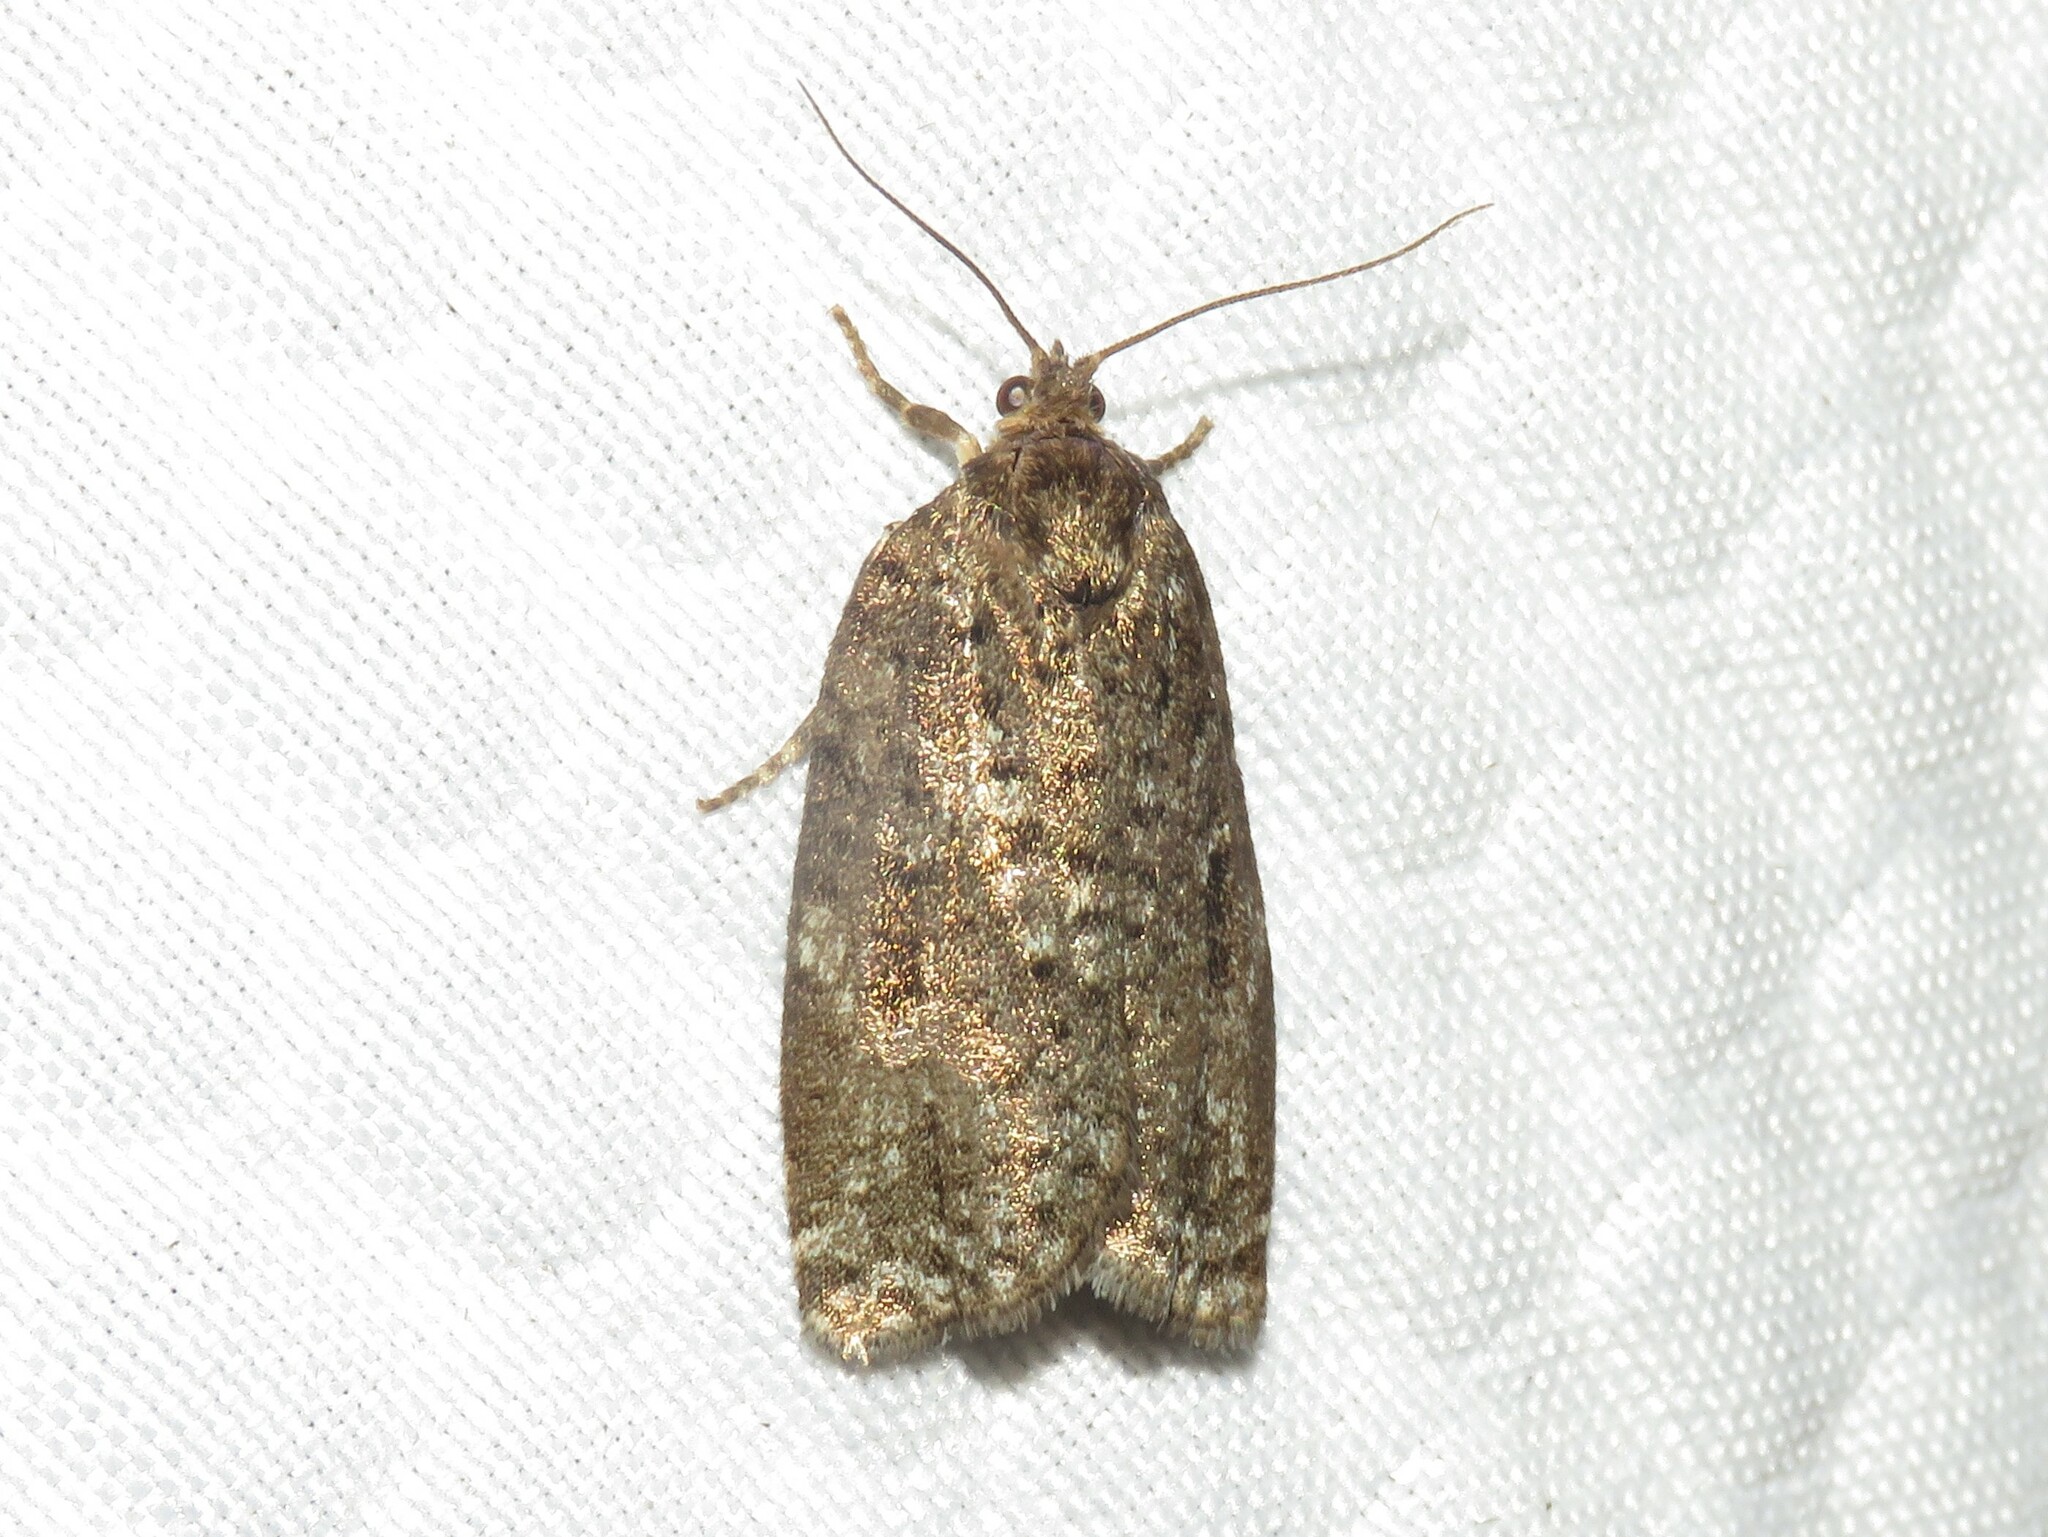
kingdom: Animalia
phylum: Arthropoda
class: Insecta
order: Lepidoptera
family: Tortricidae
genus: Choristoneura
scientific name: Choristoneura fumiferana
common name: Spruce budworm
